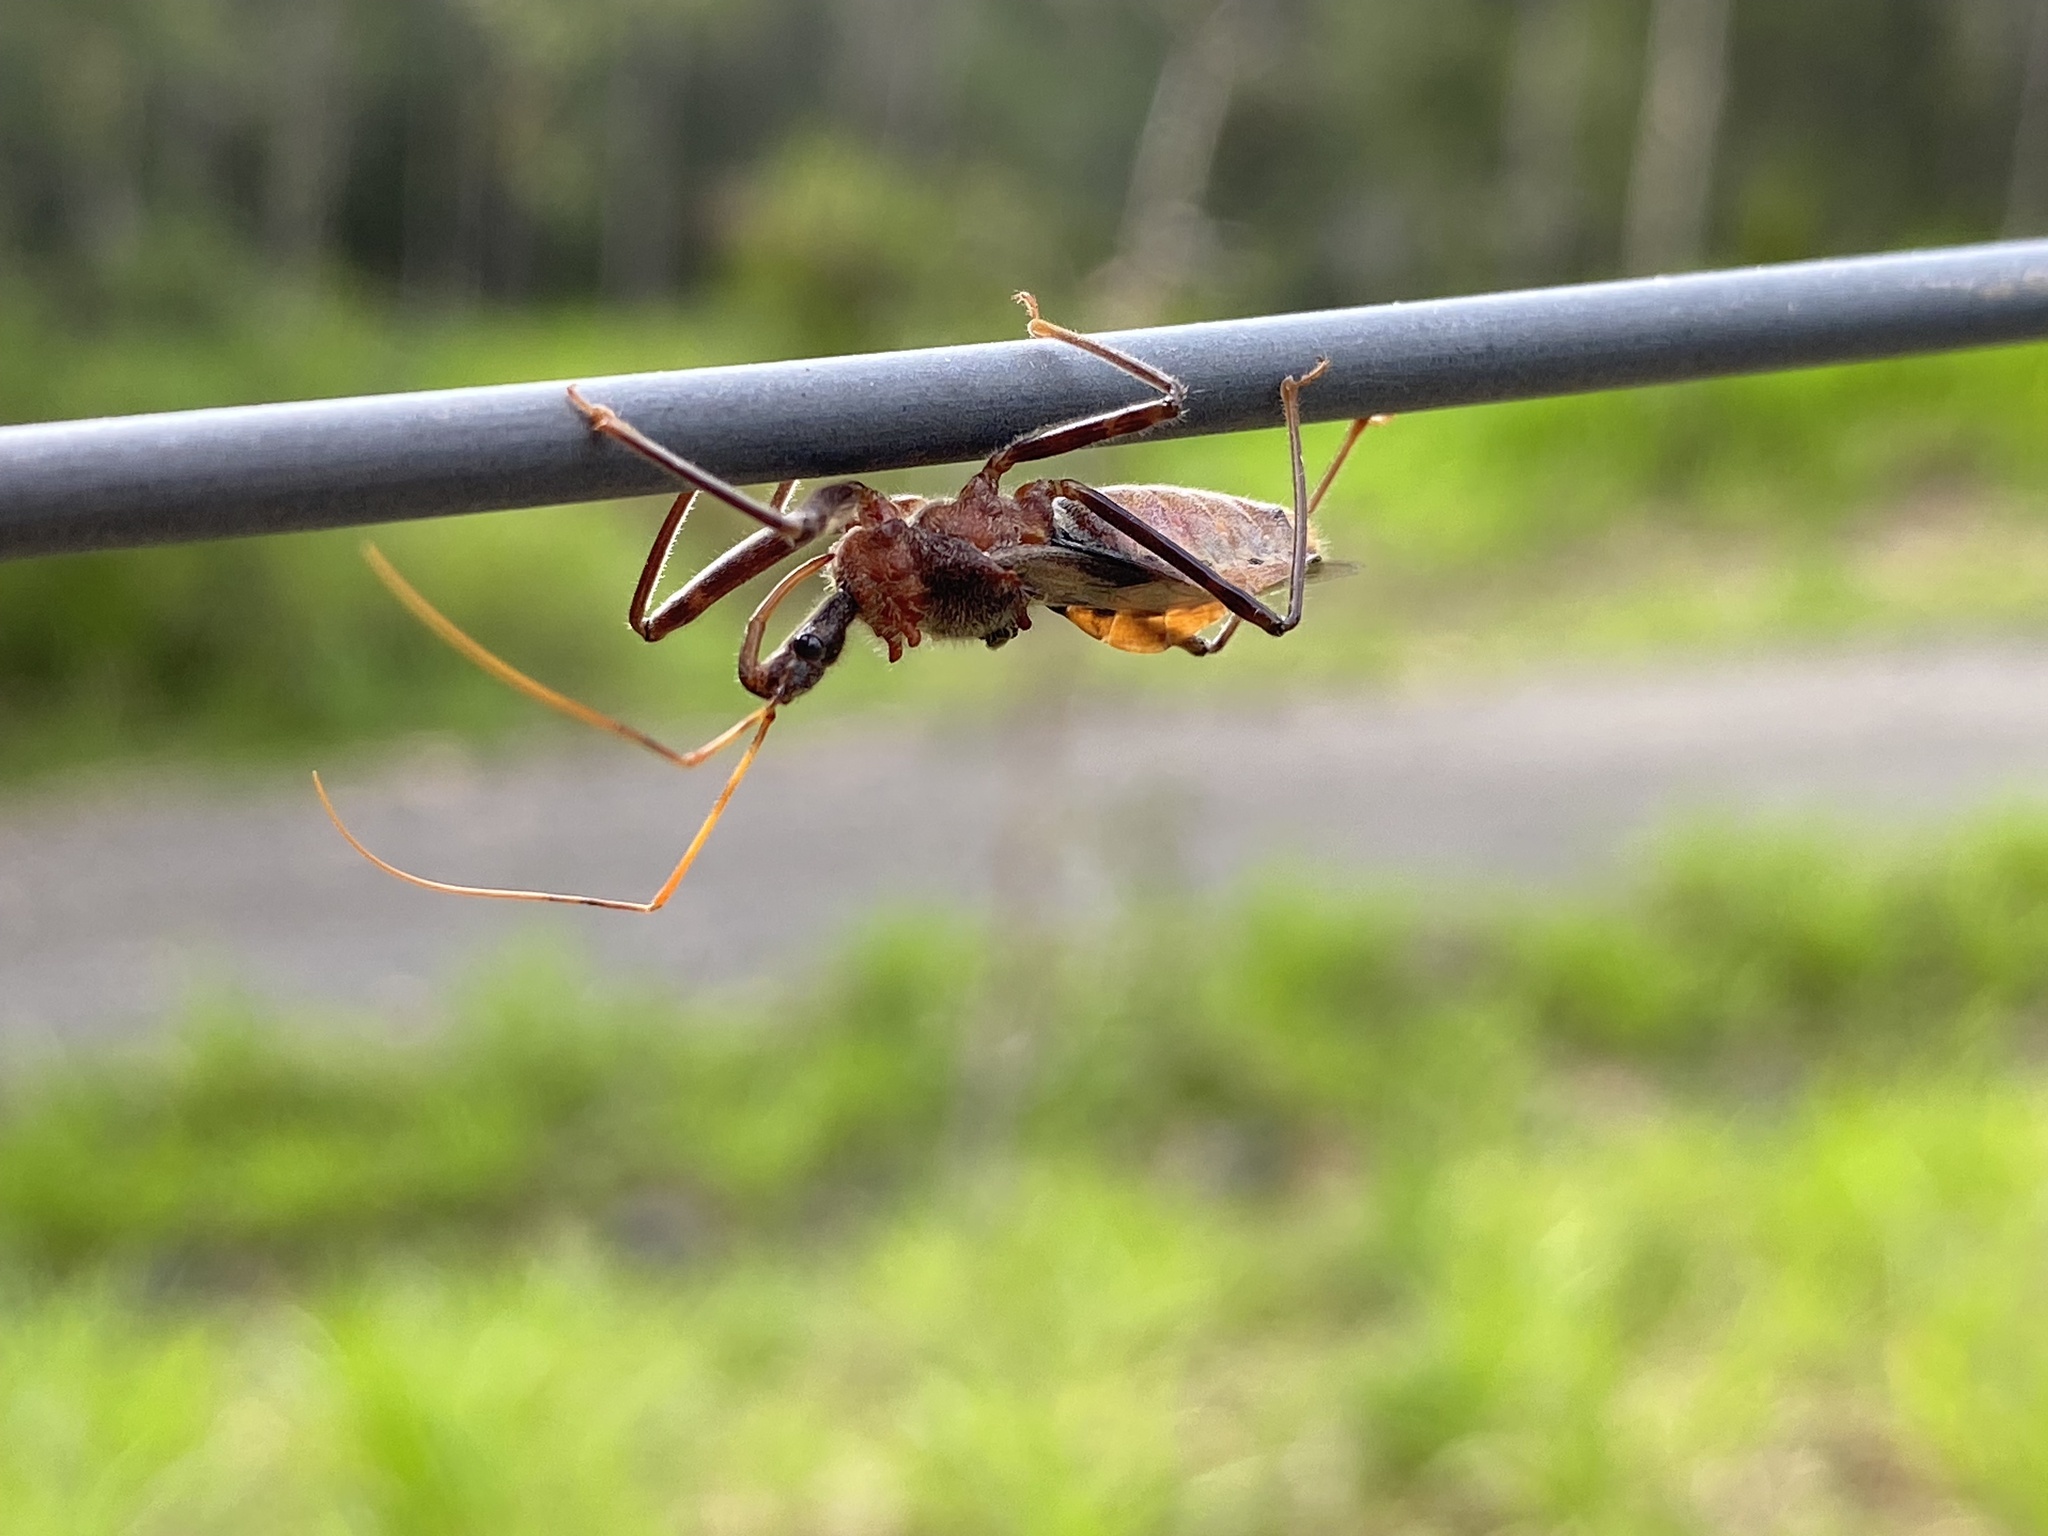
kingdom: Animalia
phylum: Arthropoda
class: Insecta
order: Hemiptera
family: Reduviidae
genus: Pristhesancus
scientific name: Pristhesancus chlamydatus
